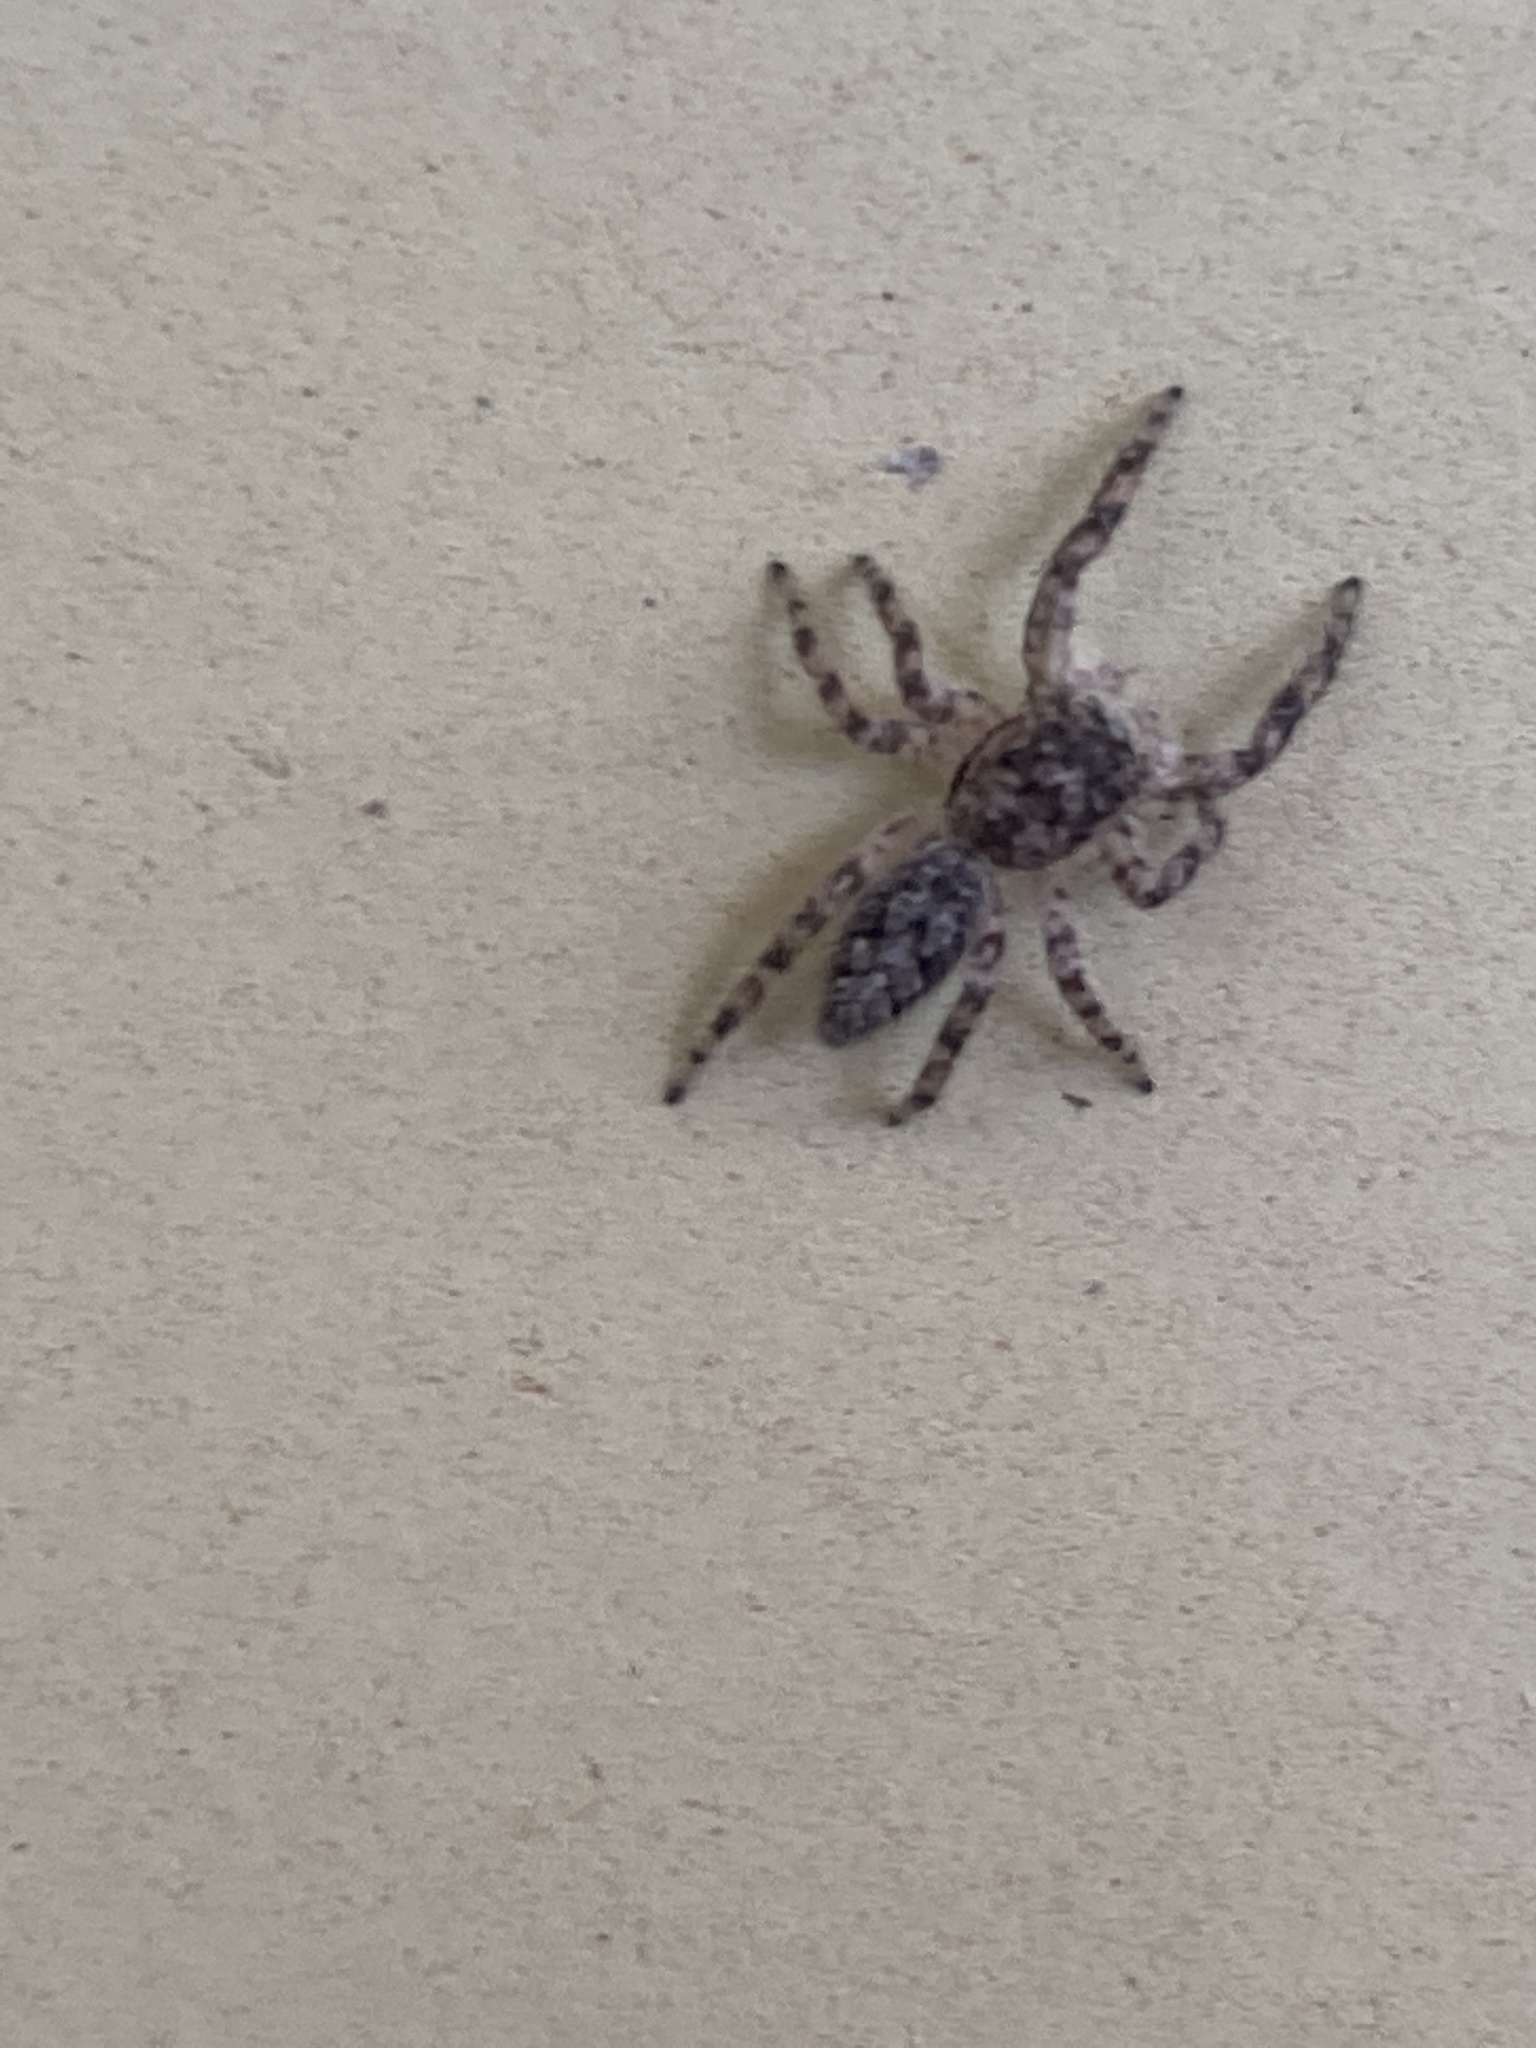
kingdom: Animalia
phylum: Arthropoda
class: Arachnida
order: Araneae
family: Salticidae
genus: Platycryptus
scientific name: Platycryptus undatus
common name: Tan jumping spider
